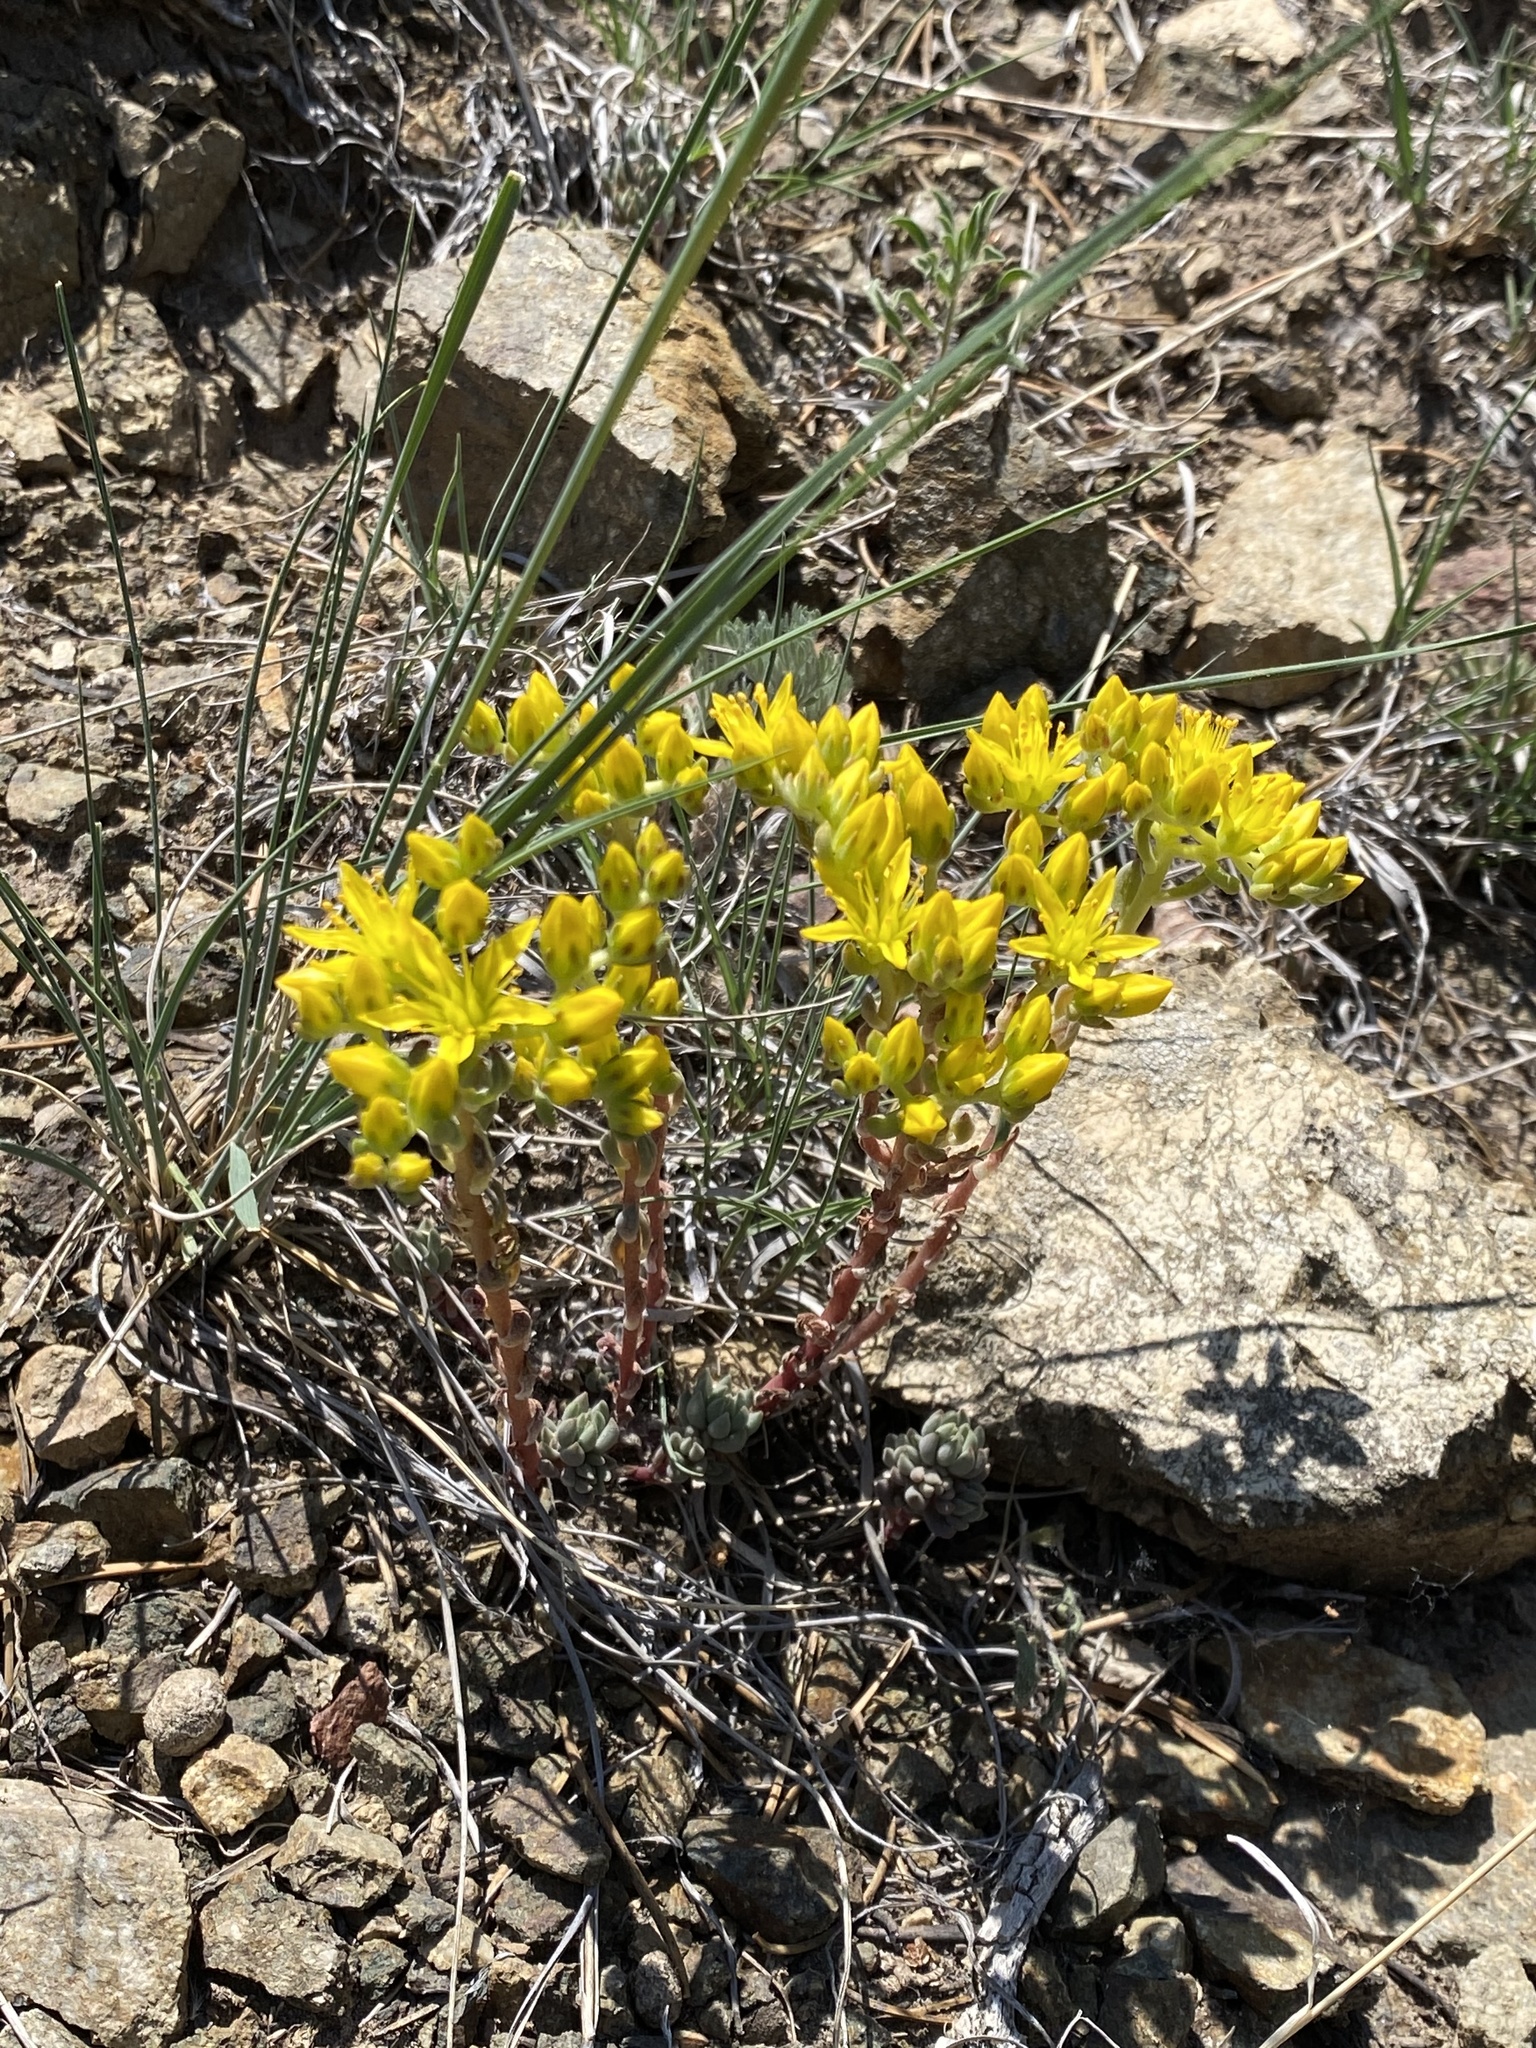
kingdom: Plantae
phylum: Tracheophyta
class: Magnoliopsida
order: Saxifragales
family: Crassulaceae
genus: Sedum
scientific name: Sedum lanceolatum
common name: Common stonecrop
